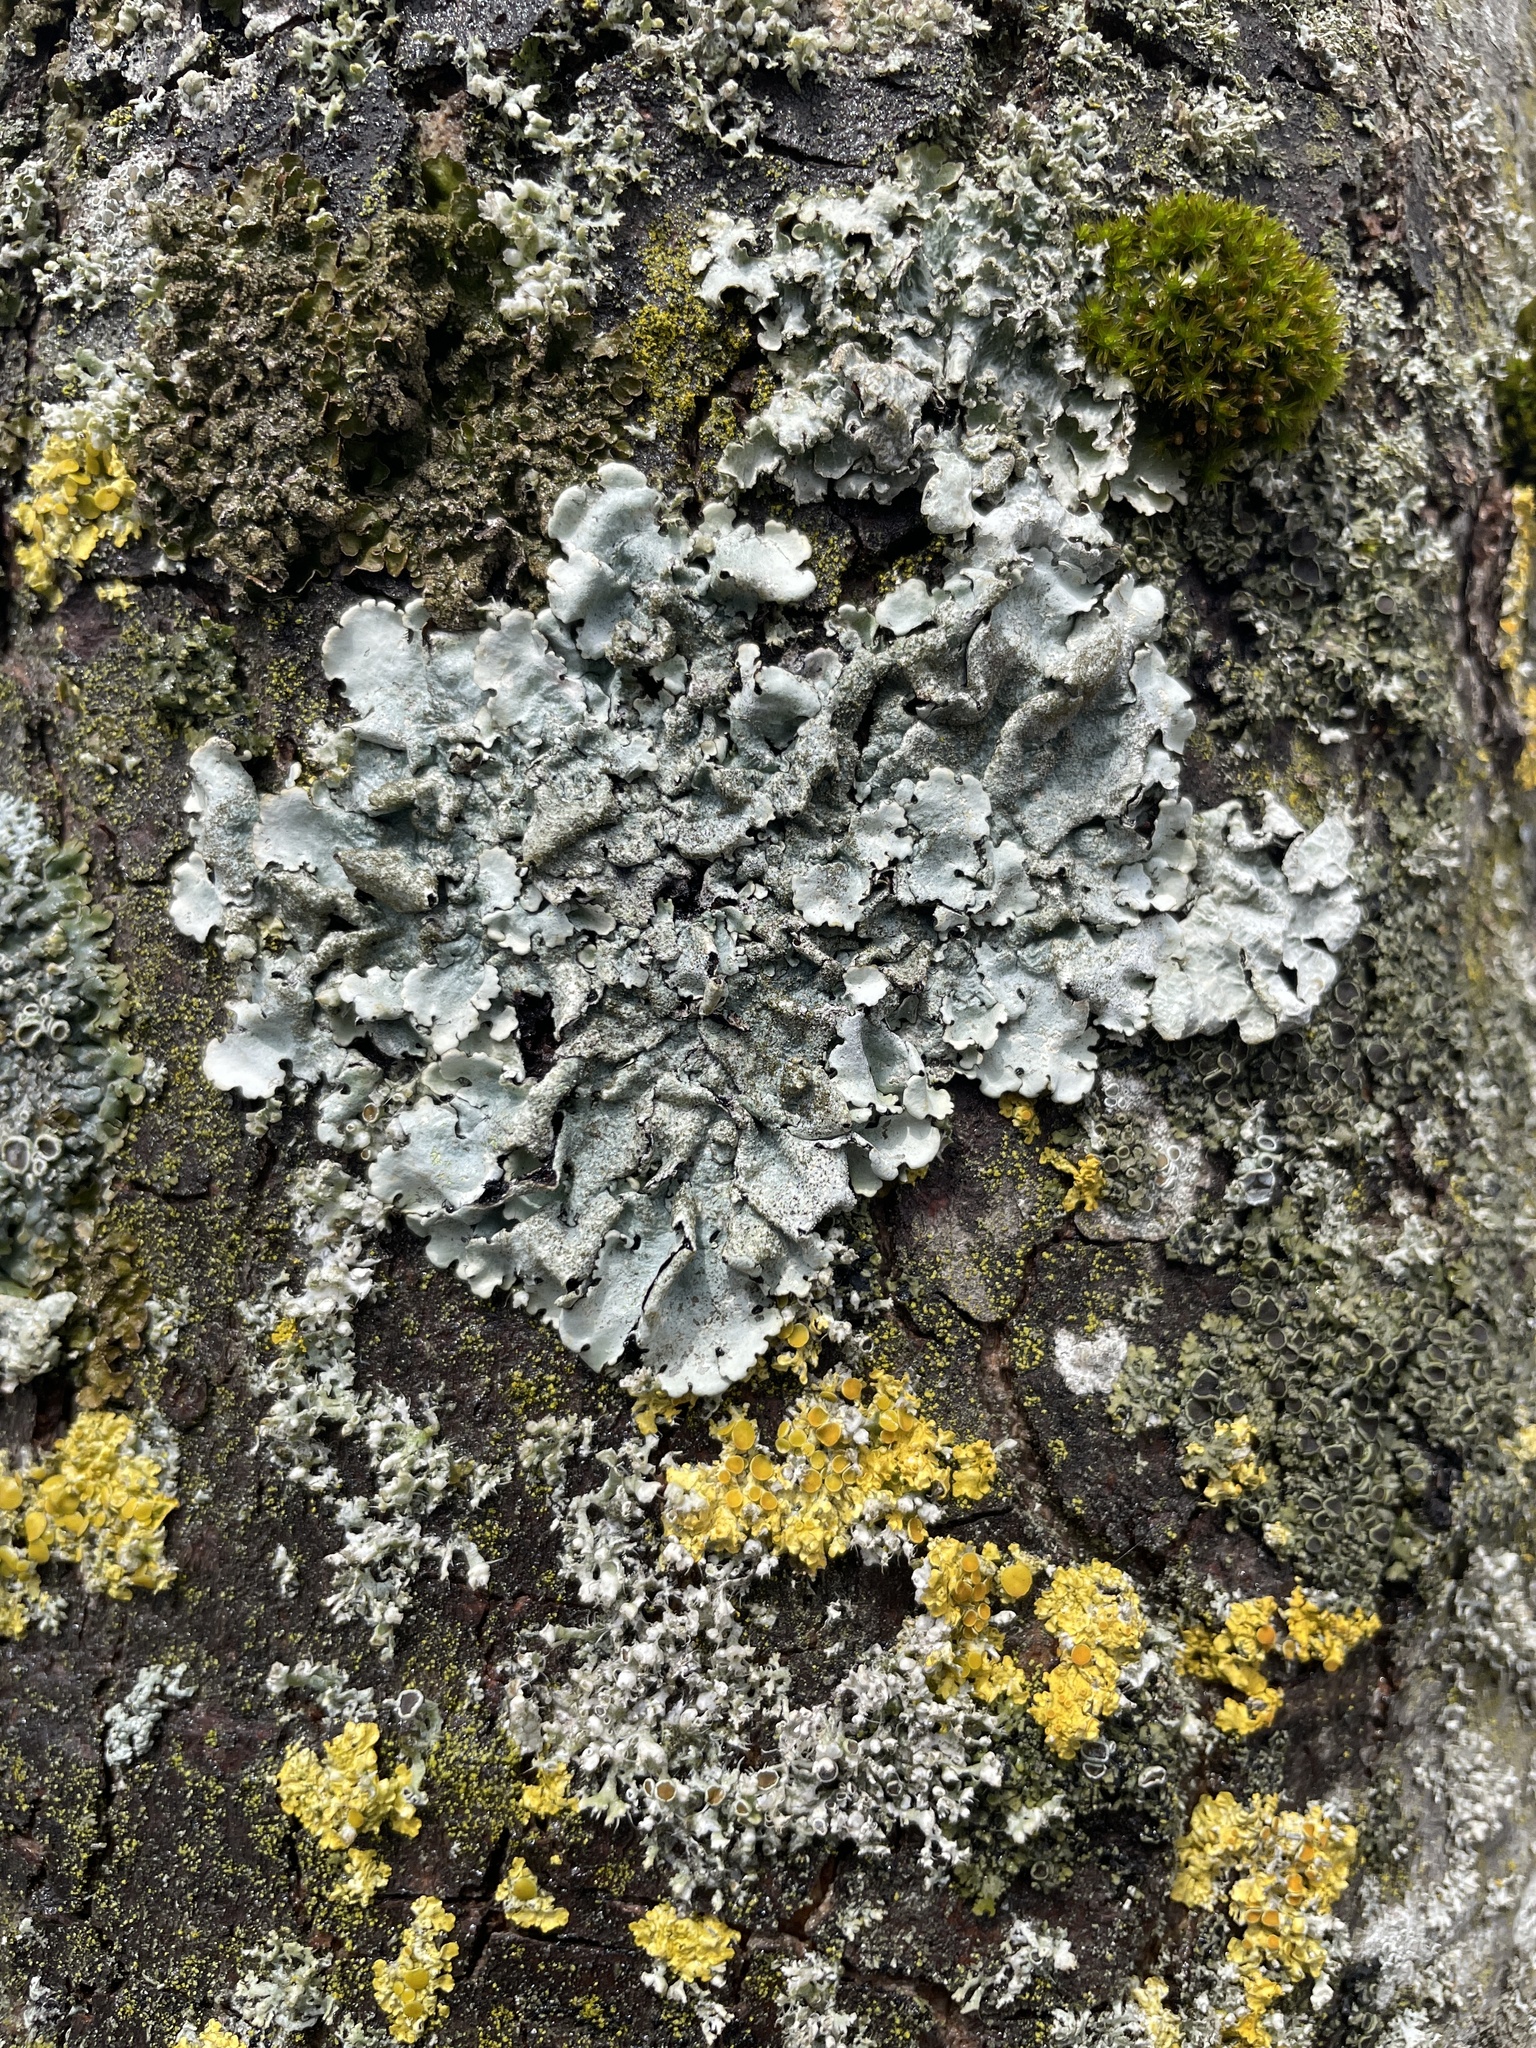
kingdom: Fungi
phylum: Ascomycota
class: Lecanoromycetes
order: Lecanorales
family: Parmeliaceae
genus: Parmelina
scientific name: Parmelina tiliacea
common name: Linden shield lichen
